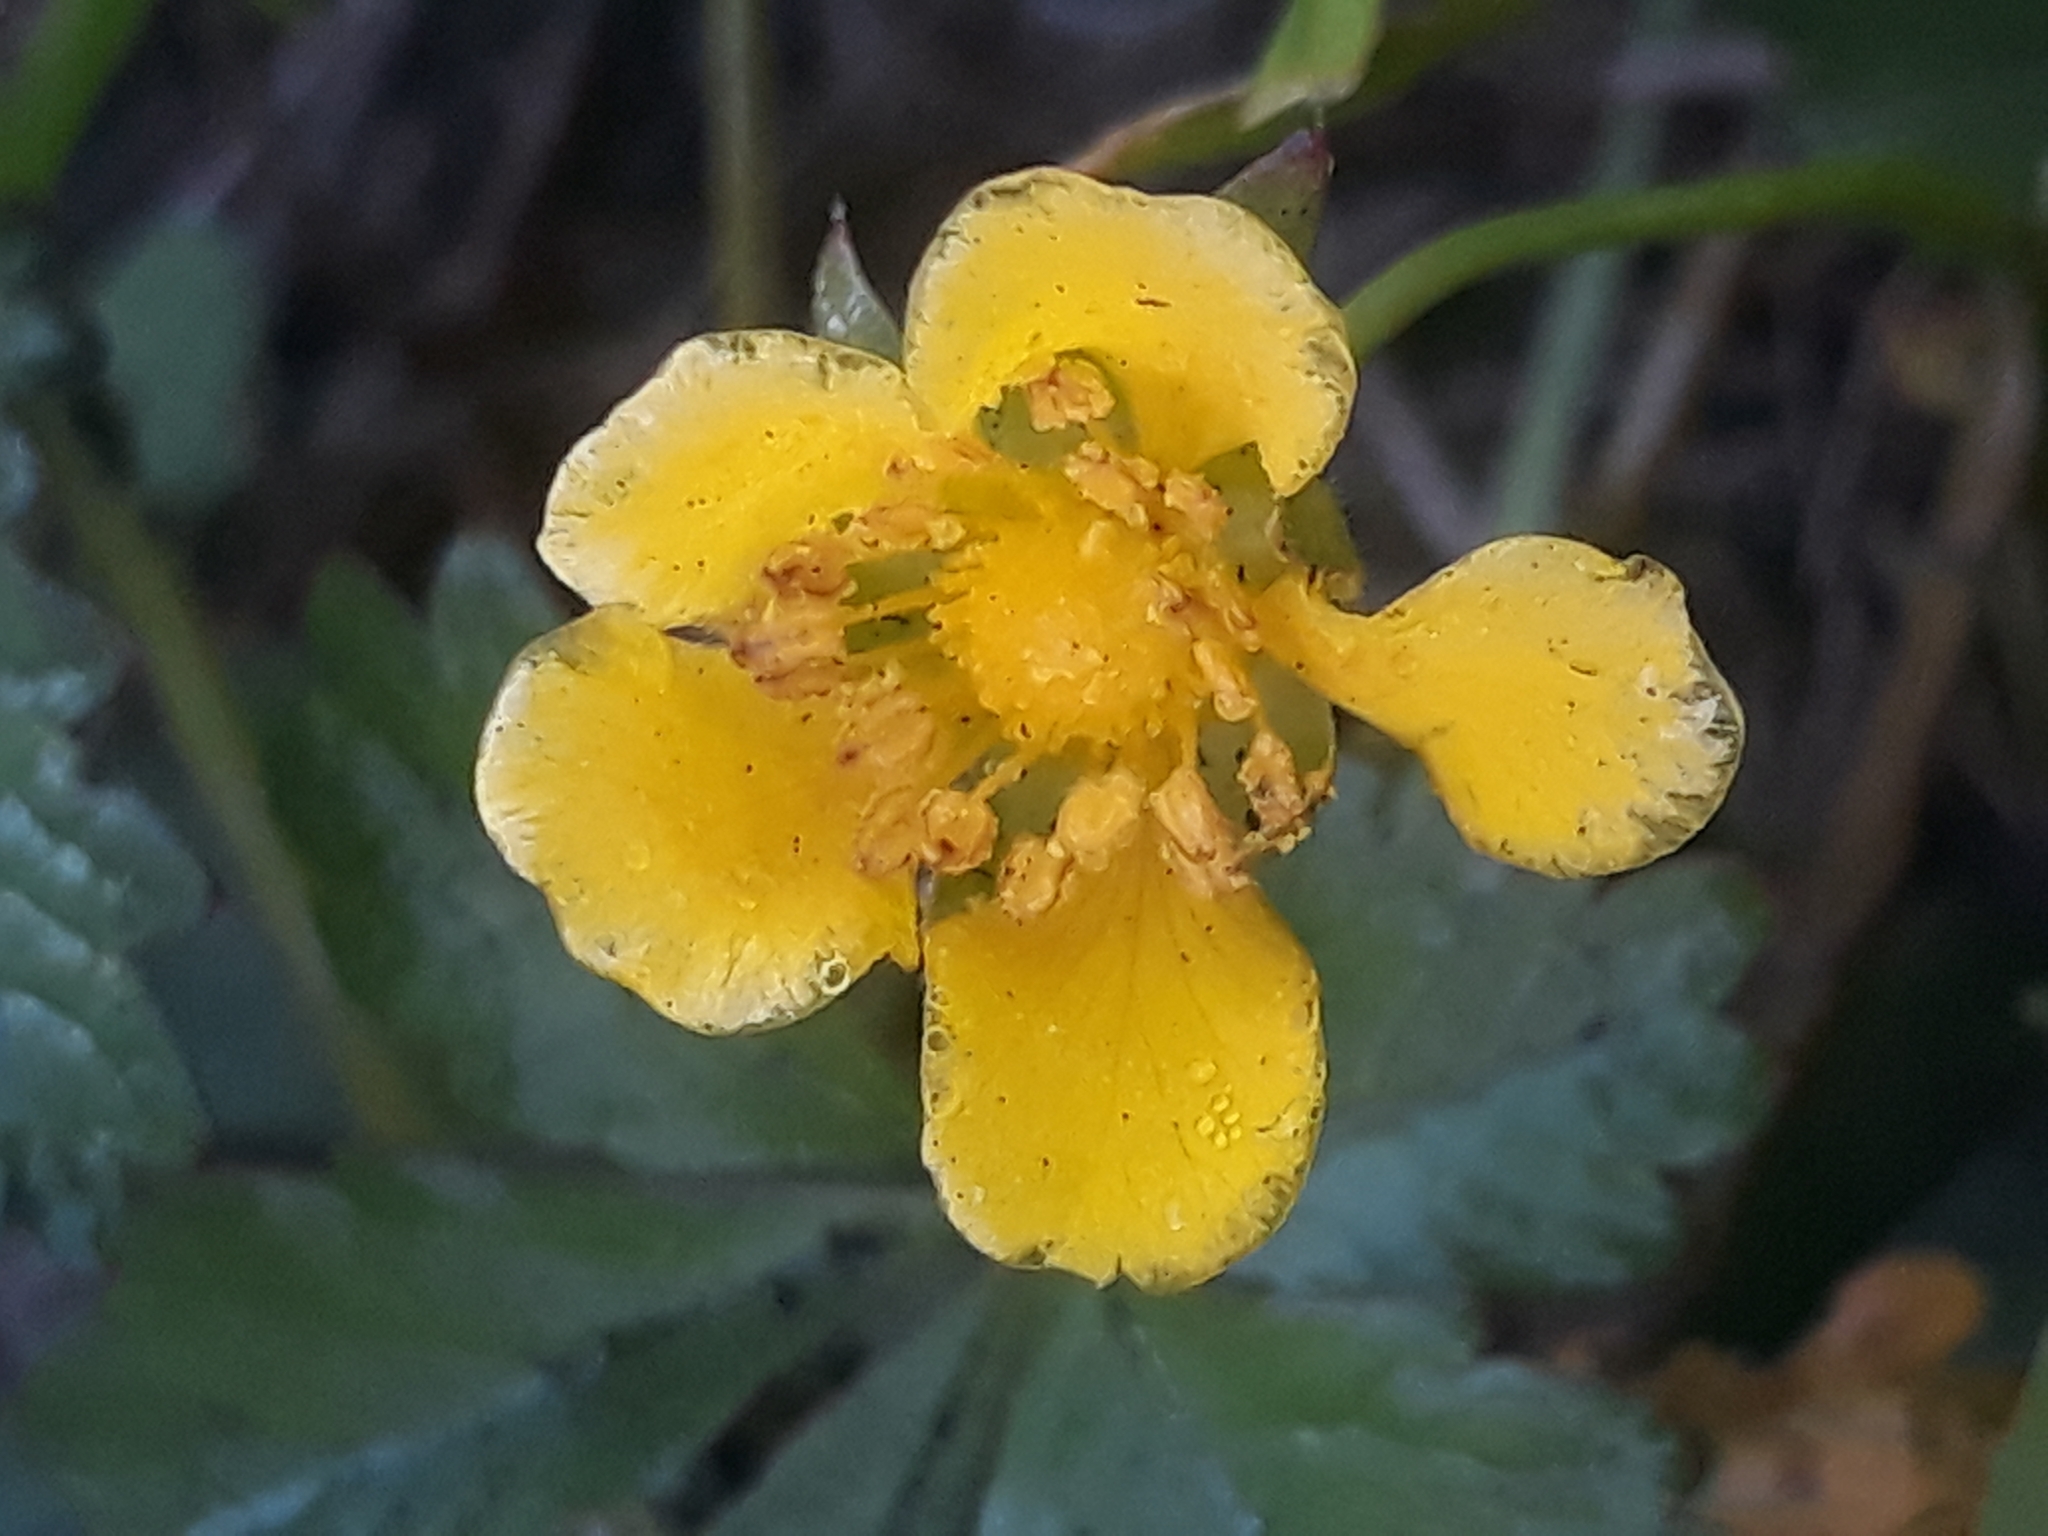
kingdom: Plantae
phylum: Tracheophyta
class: Magnoliopsida
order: Rosales
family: Rosaceae
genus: Potentilla
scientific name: Potentilla reptans
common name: Creeping cinquefoil
